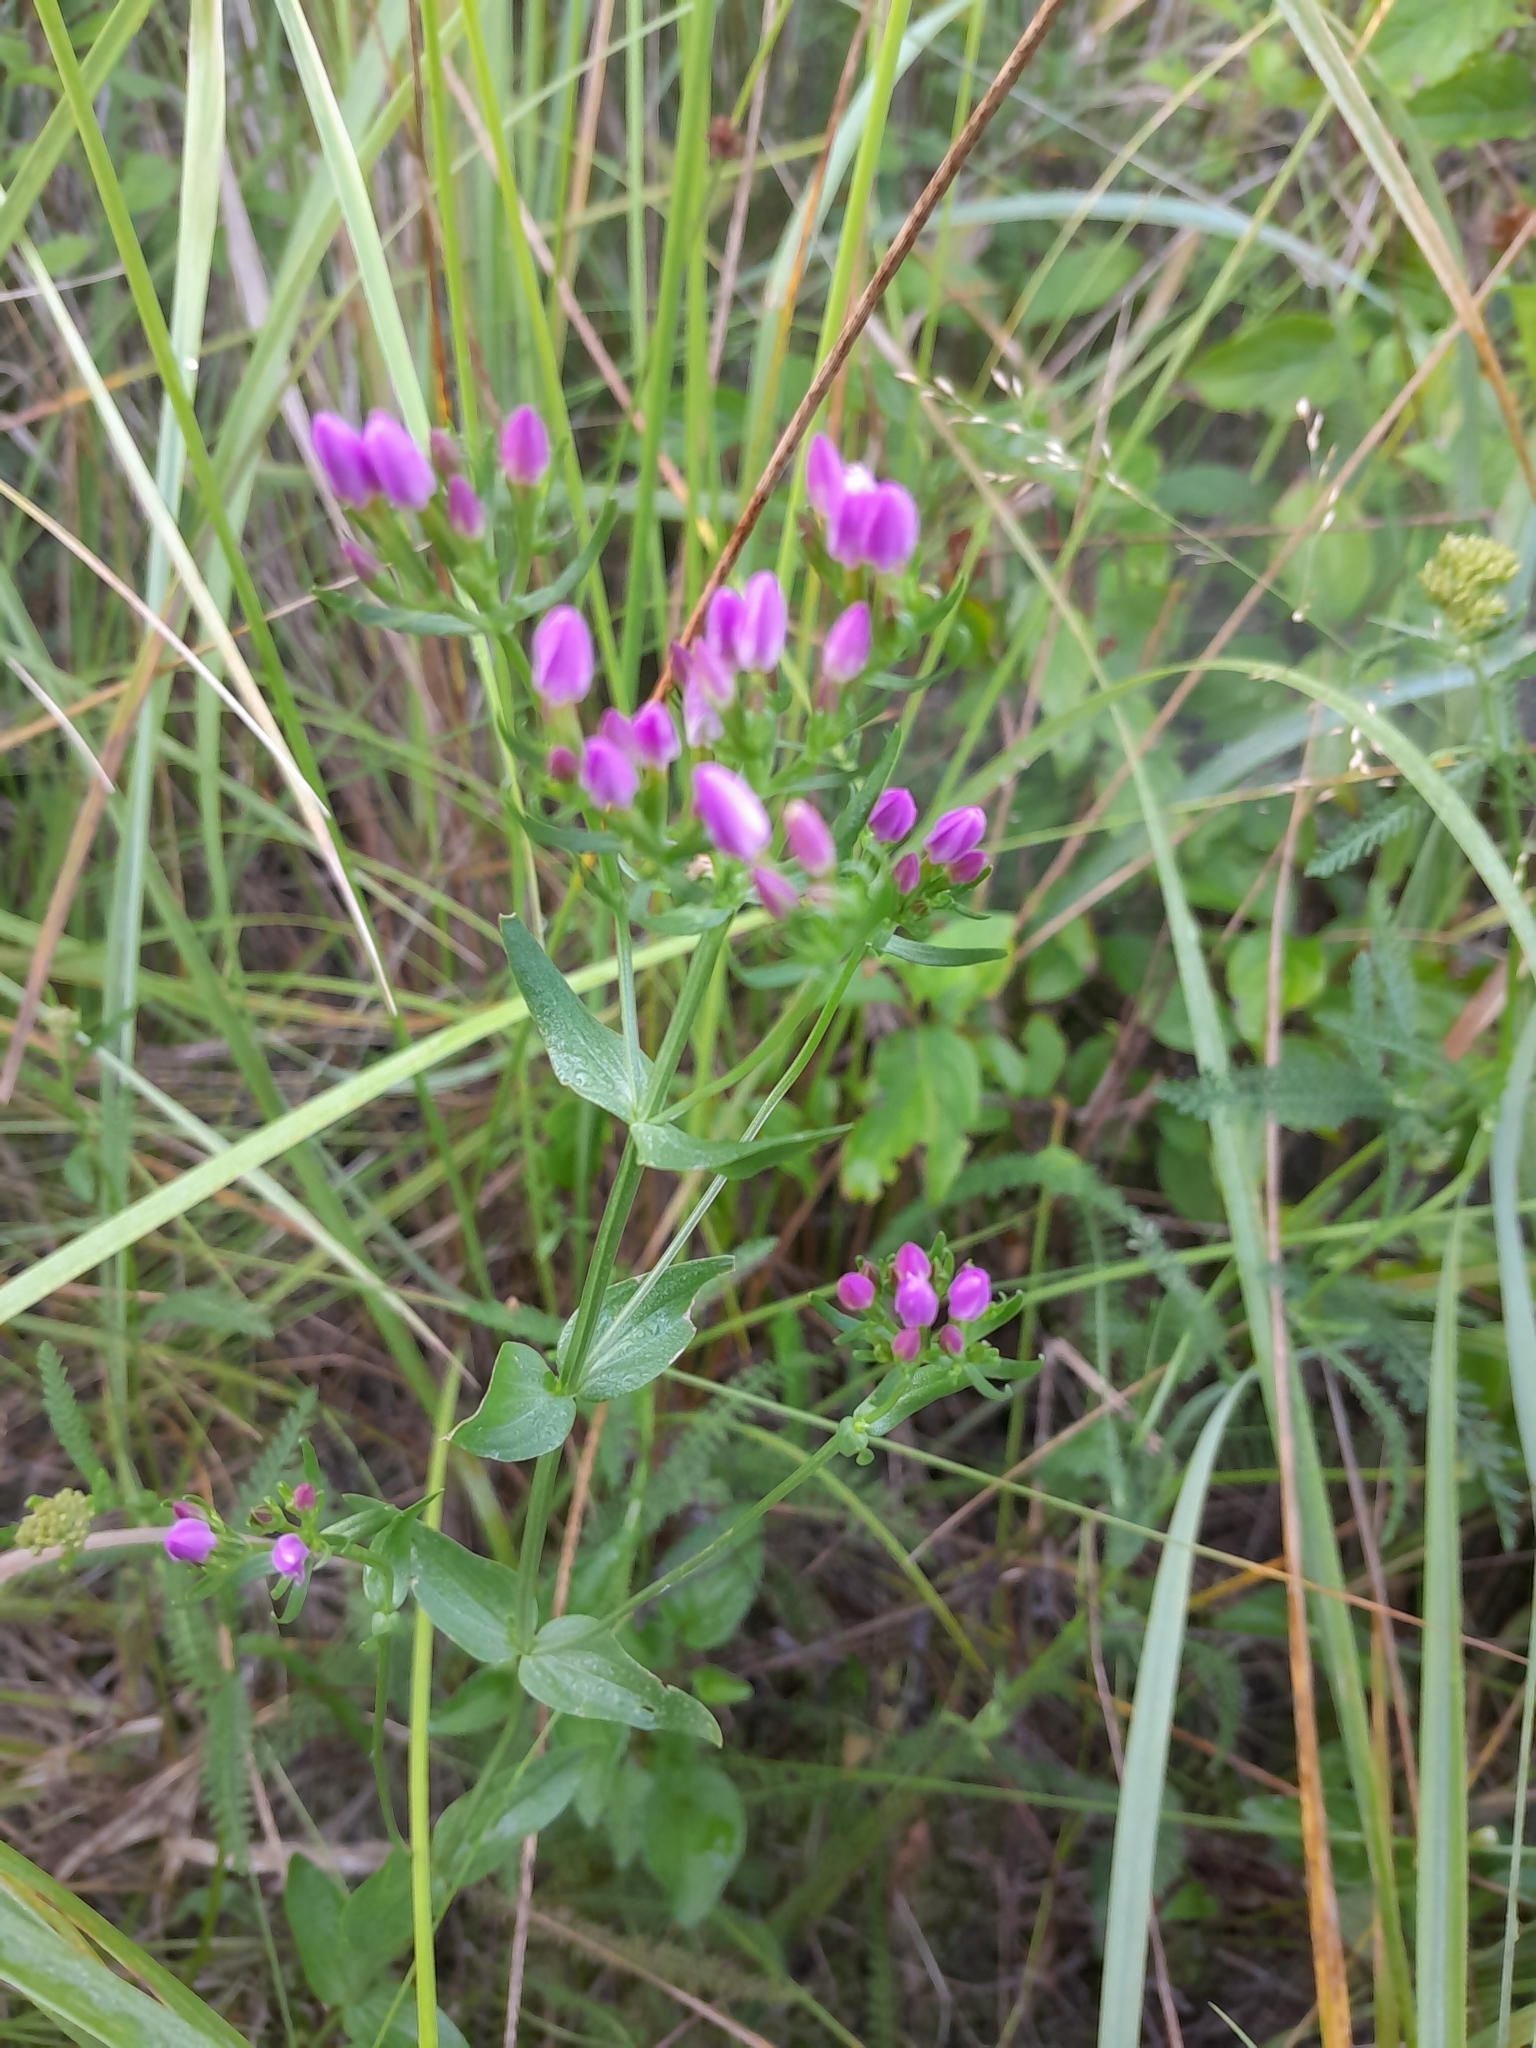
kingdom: Plantae
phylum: Tracheophyta
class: Magnoliopsida
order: Gentianales
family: Gentianaceae
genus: Centaurium
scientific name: Centaurium erythraea
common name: Common centaury
